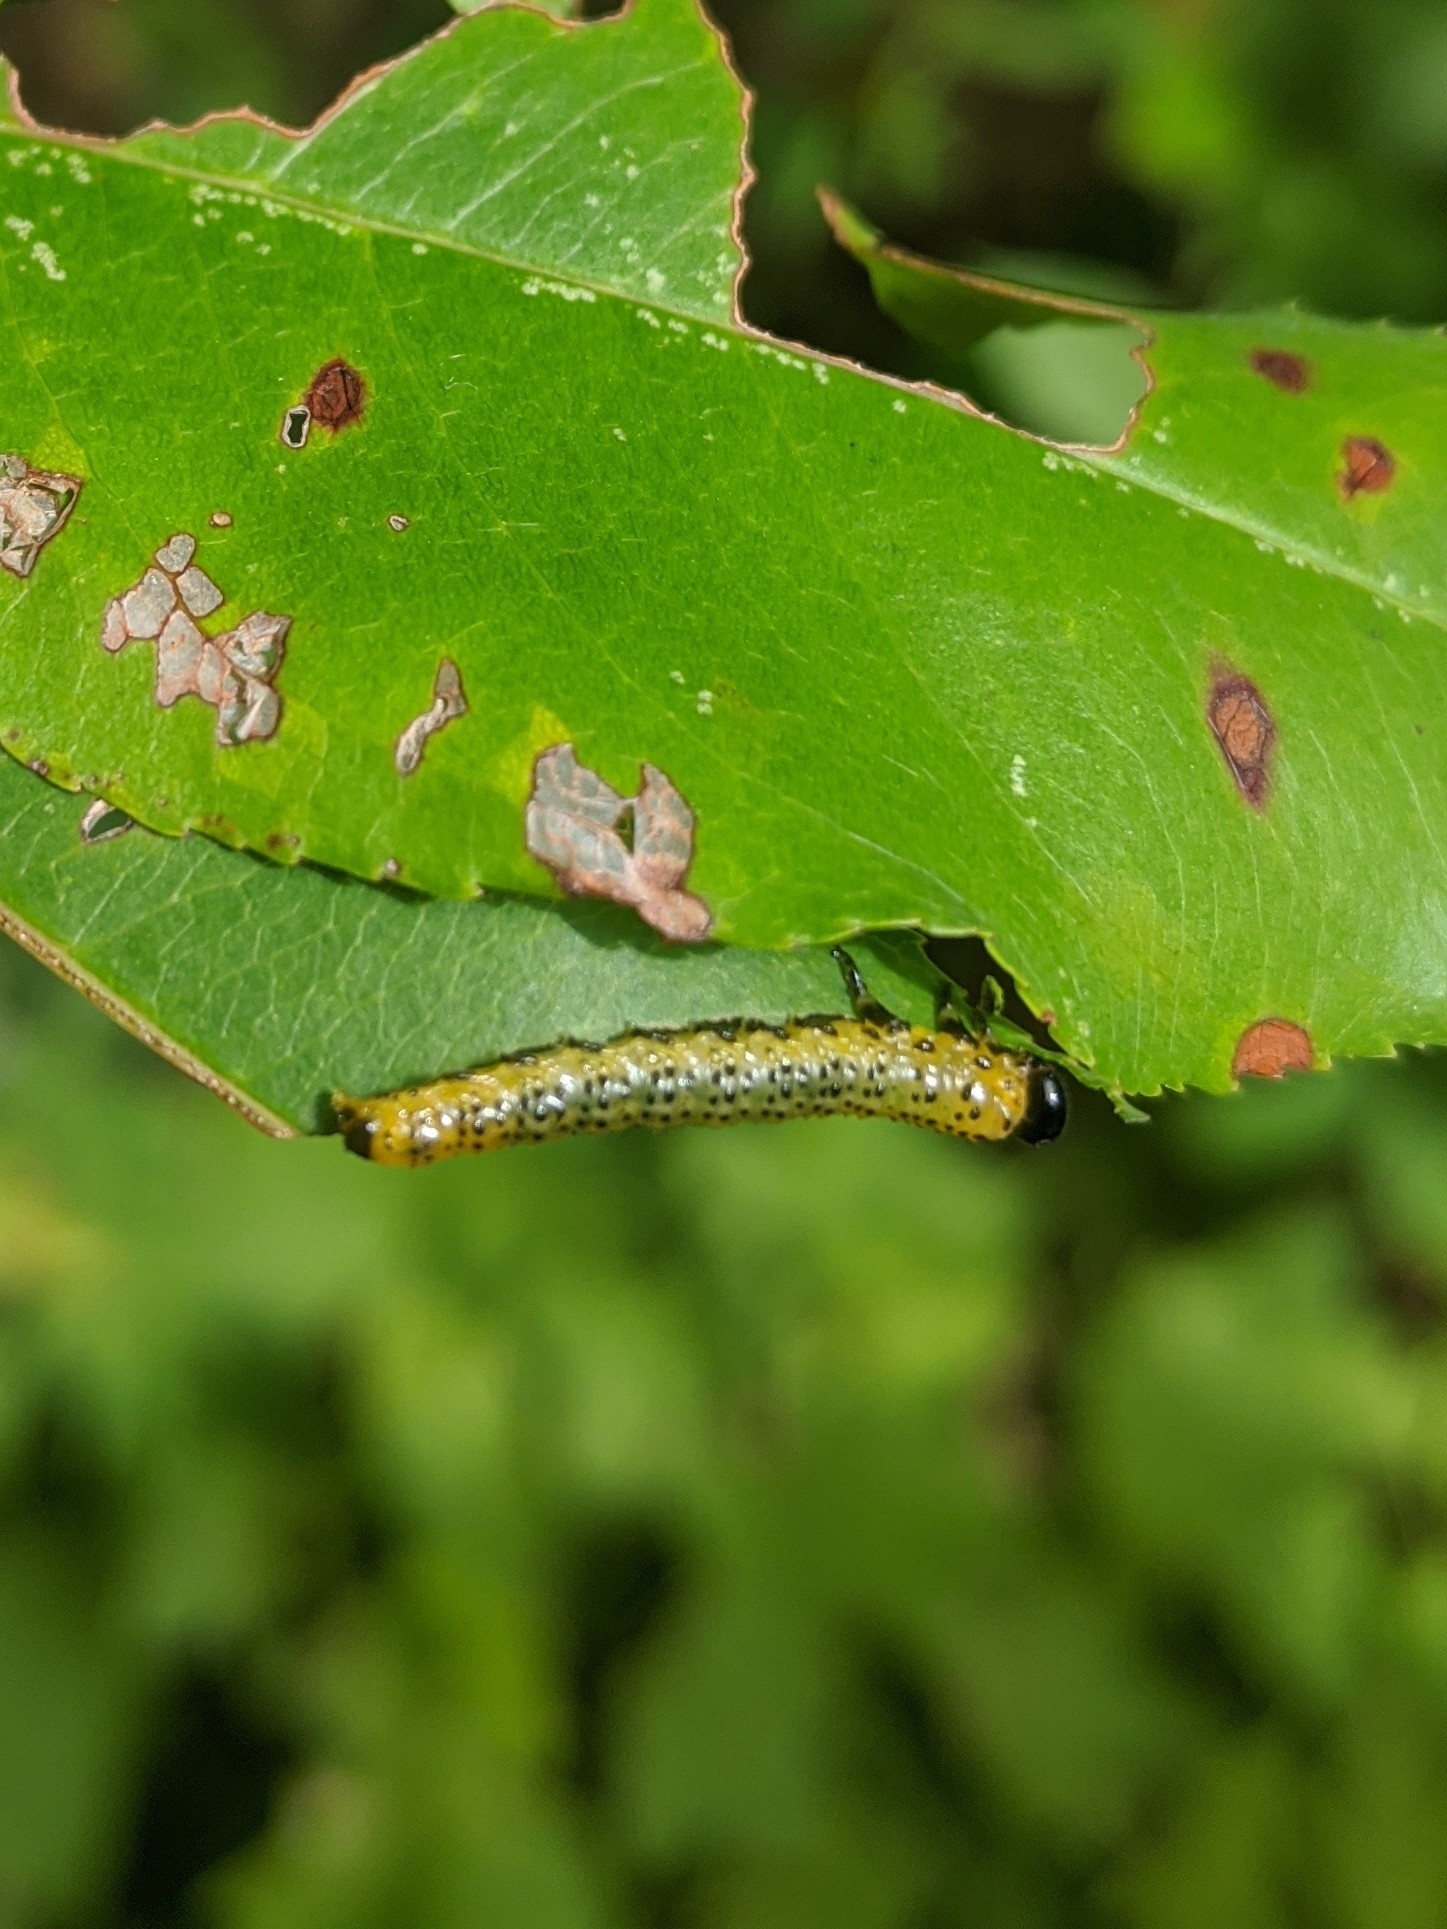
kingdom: Animalia
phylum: Arthropoda
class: Insecta
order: Hymenoptera
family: Tenthredinidae
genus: Macremphytus
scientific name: Macremphytus testaceus
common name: Dogwood sawfly
